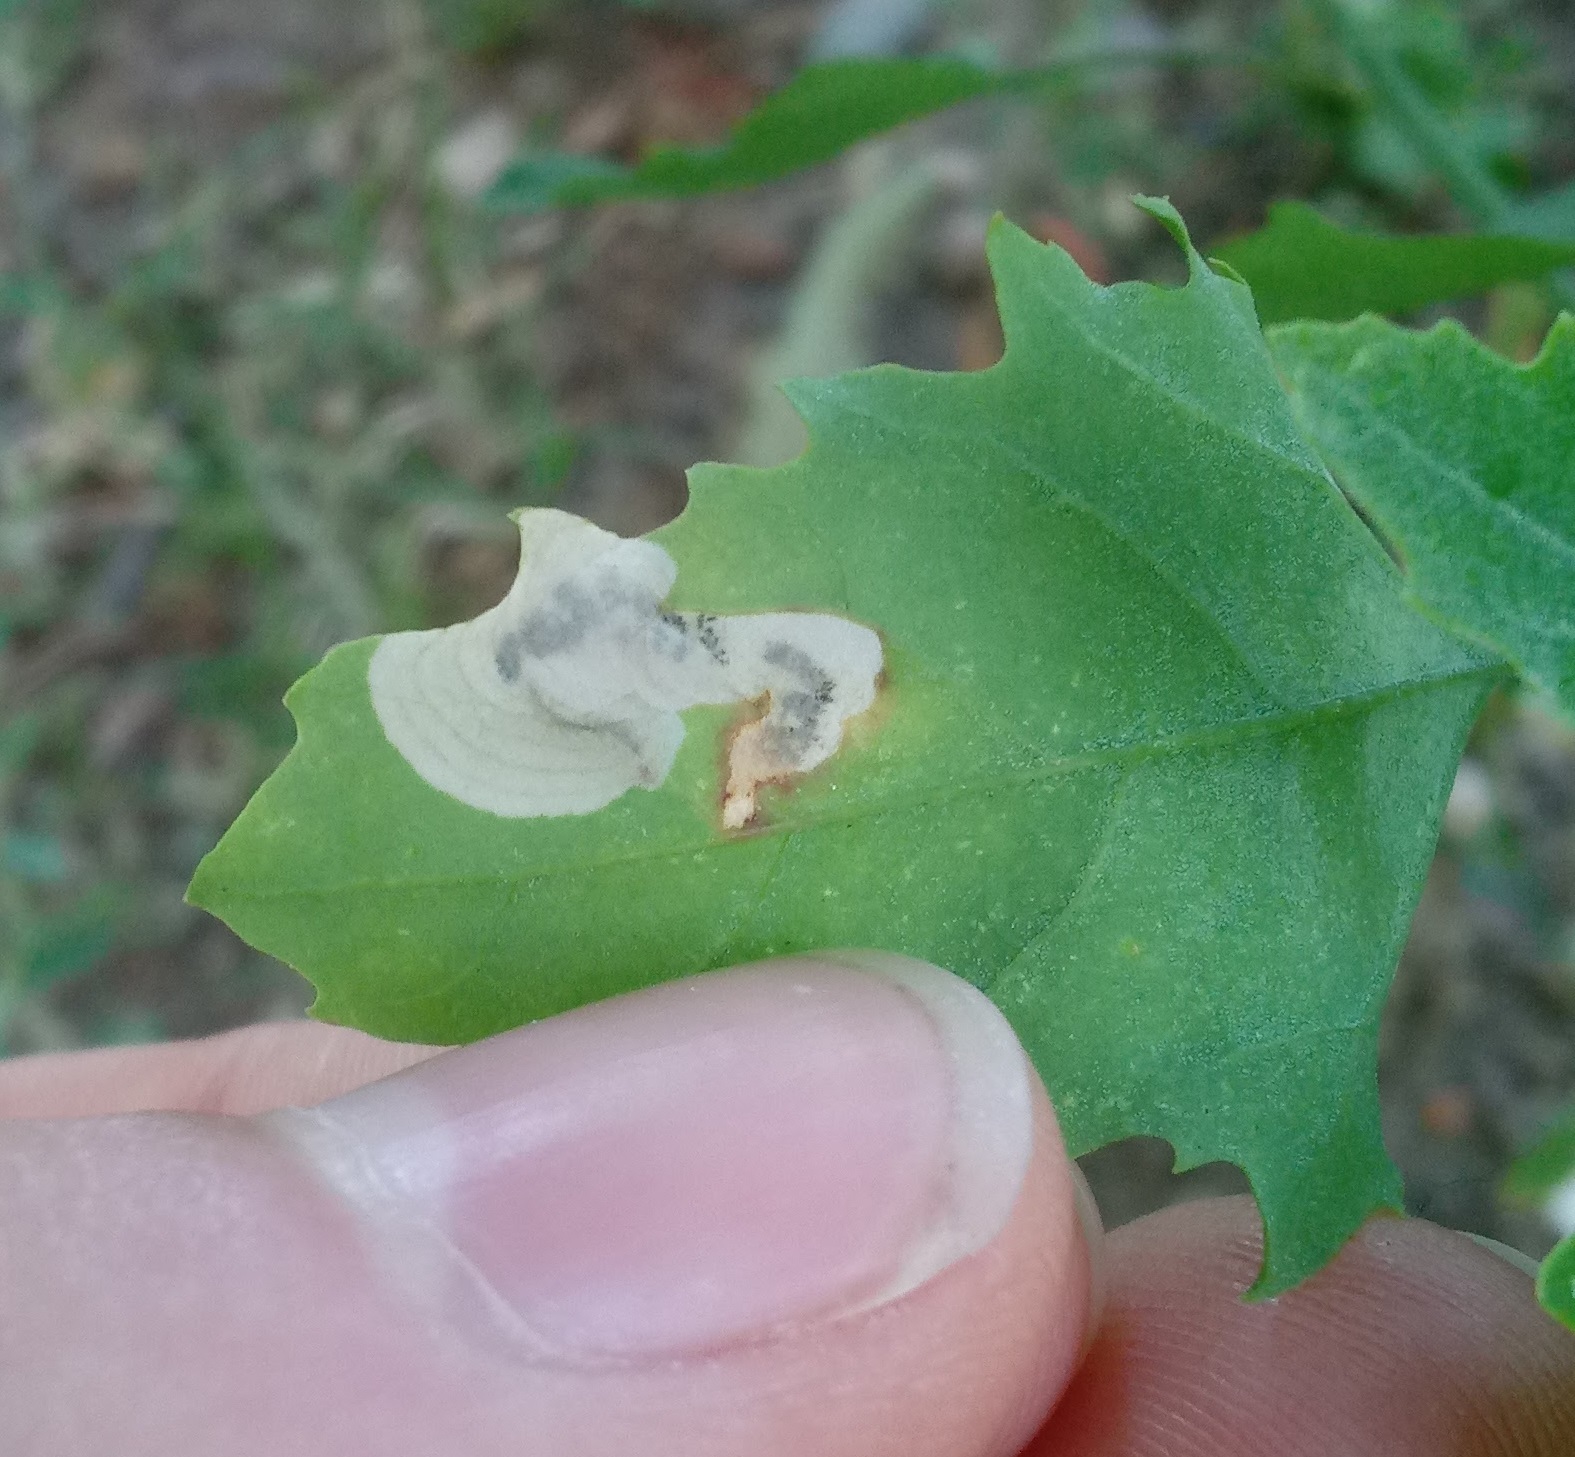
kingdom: Animalia
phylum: Arthropoda
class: Insecta
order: Lepidoptera
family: Gelechiidae
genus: Chrysoesthia
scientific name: Chrysoesthia sexguttella
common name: Moth
